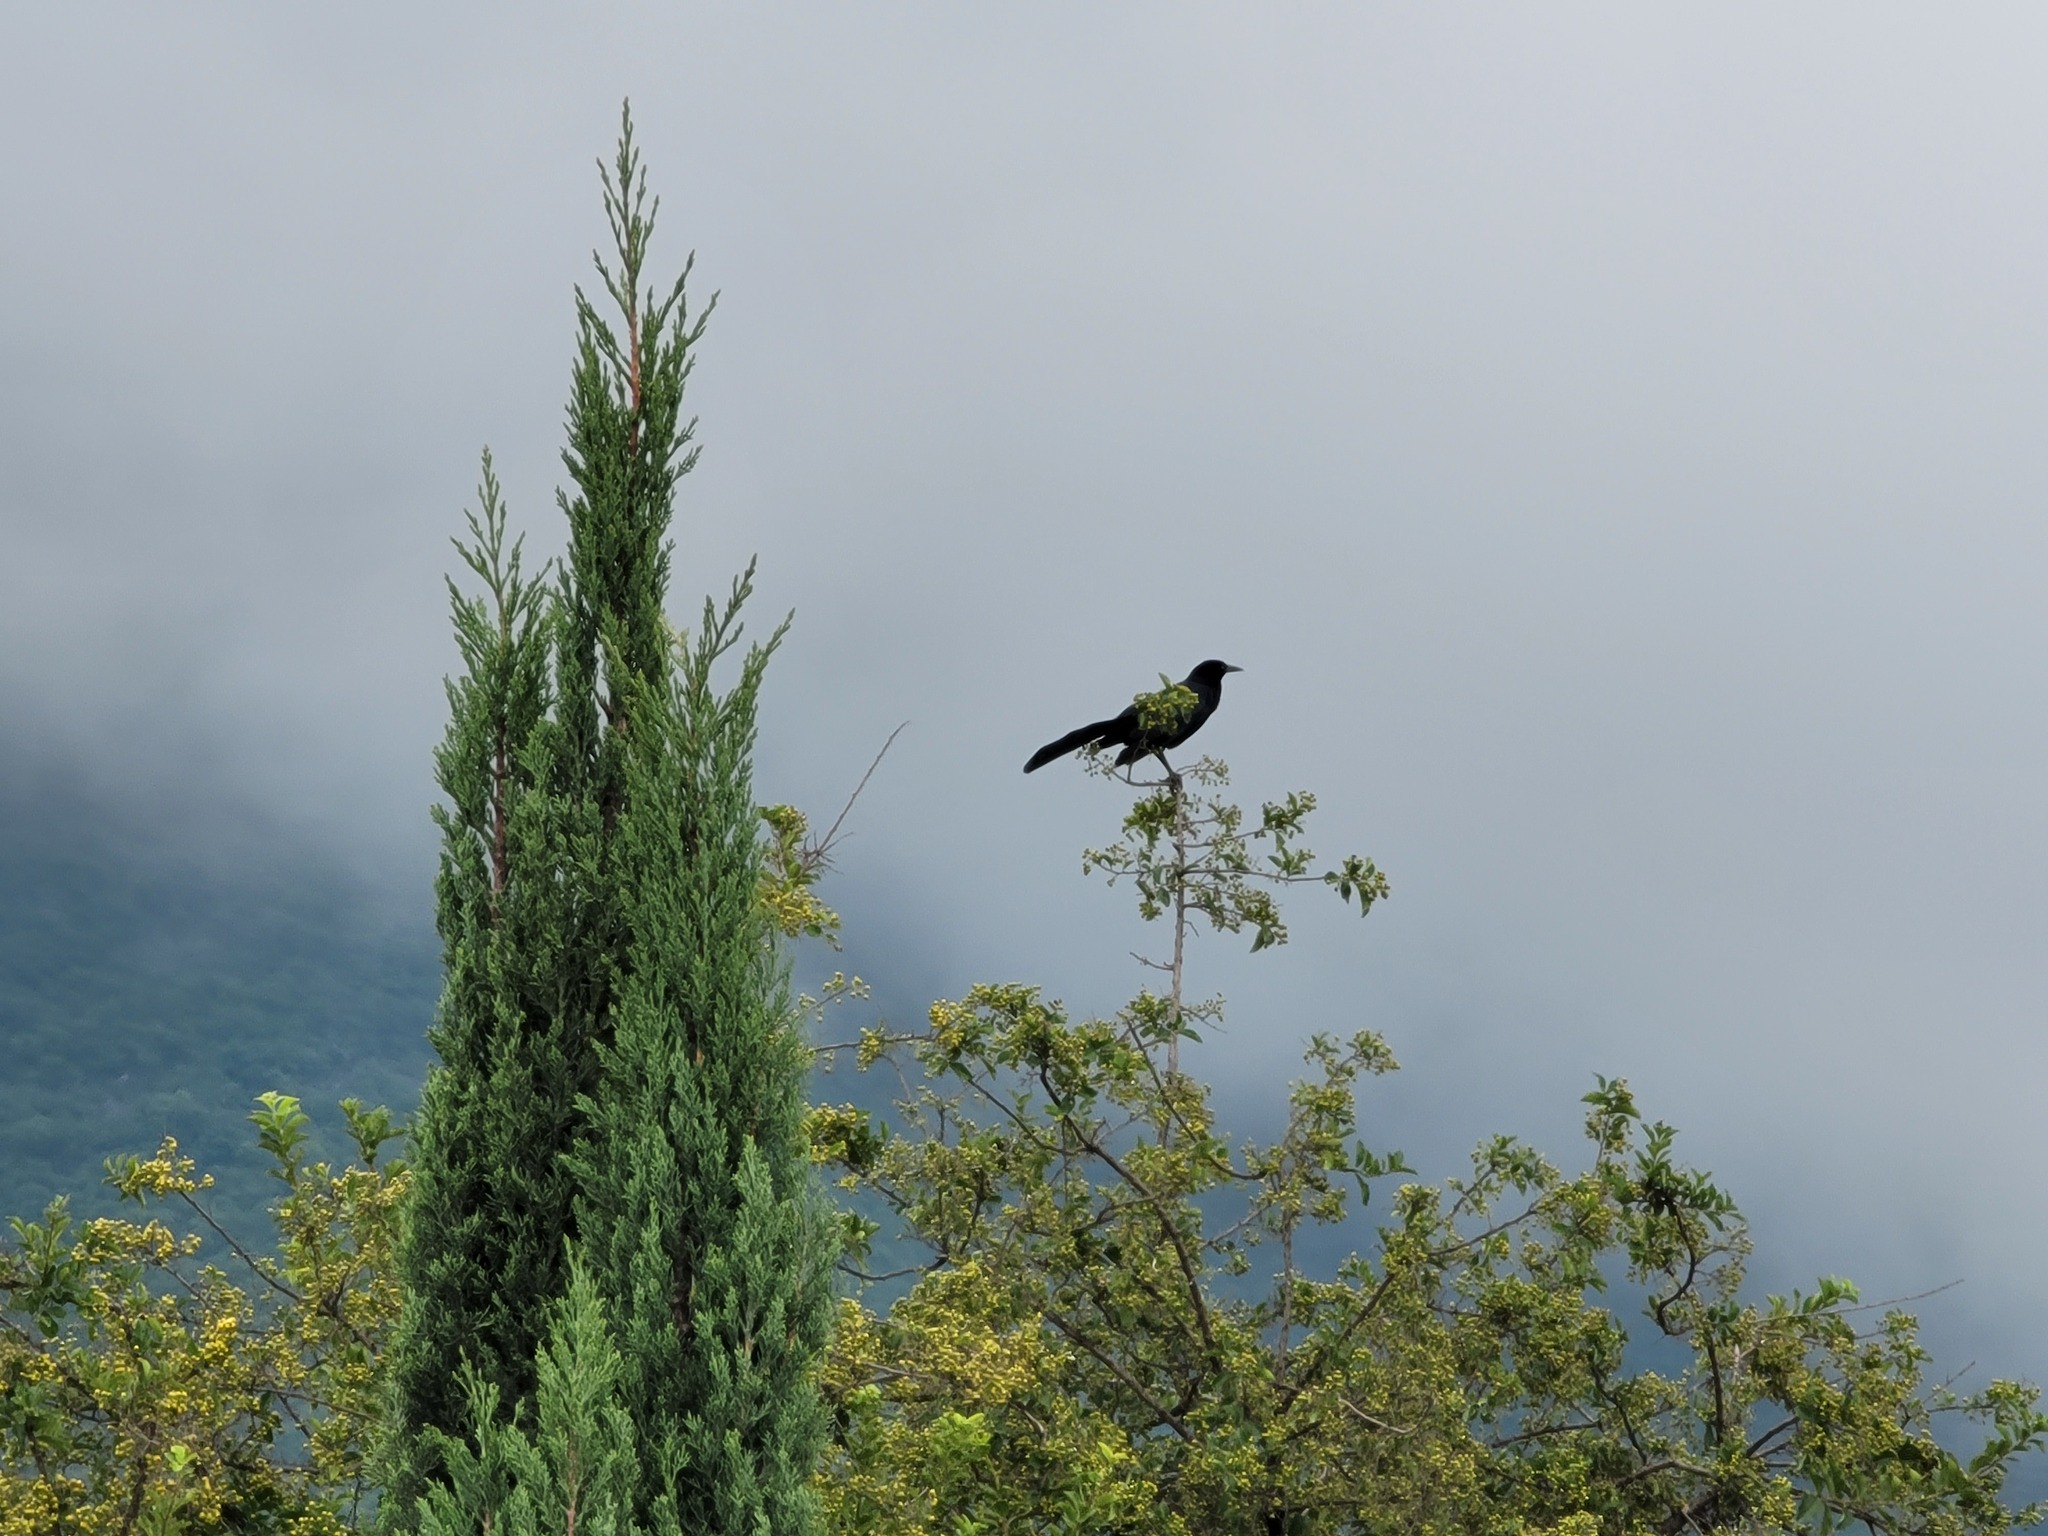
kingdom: Animalia
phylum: Chordata
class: Aves
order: Passeriformes
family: Icteridae
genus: Quiscalus
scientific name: Quiscalus mexicanus
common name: Great-tailed grackle
